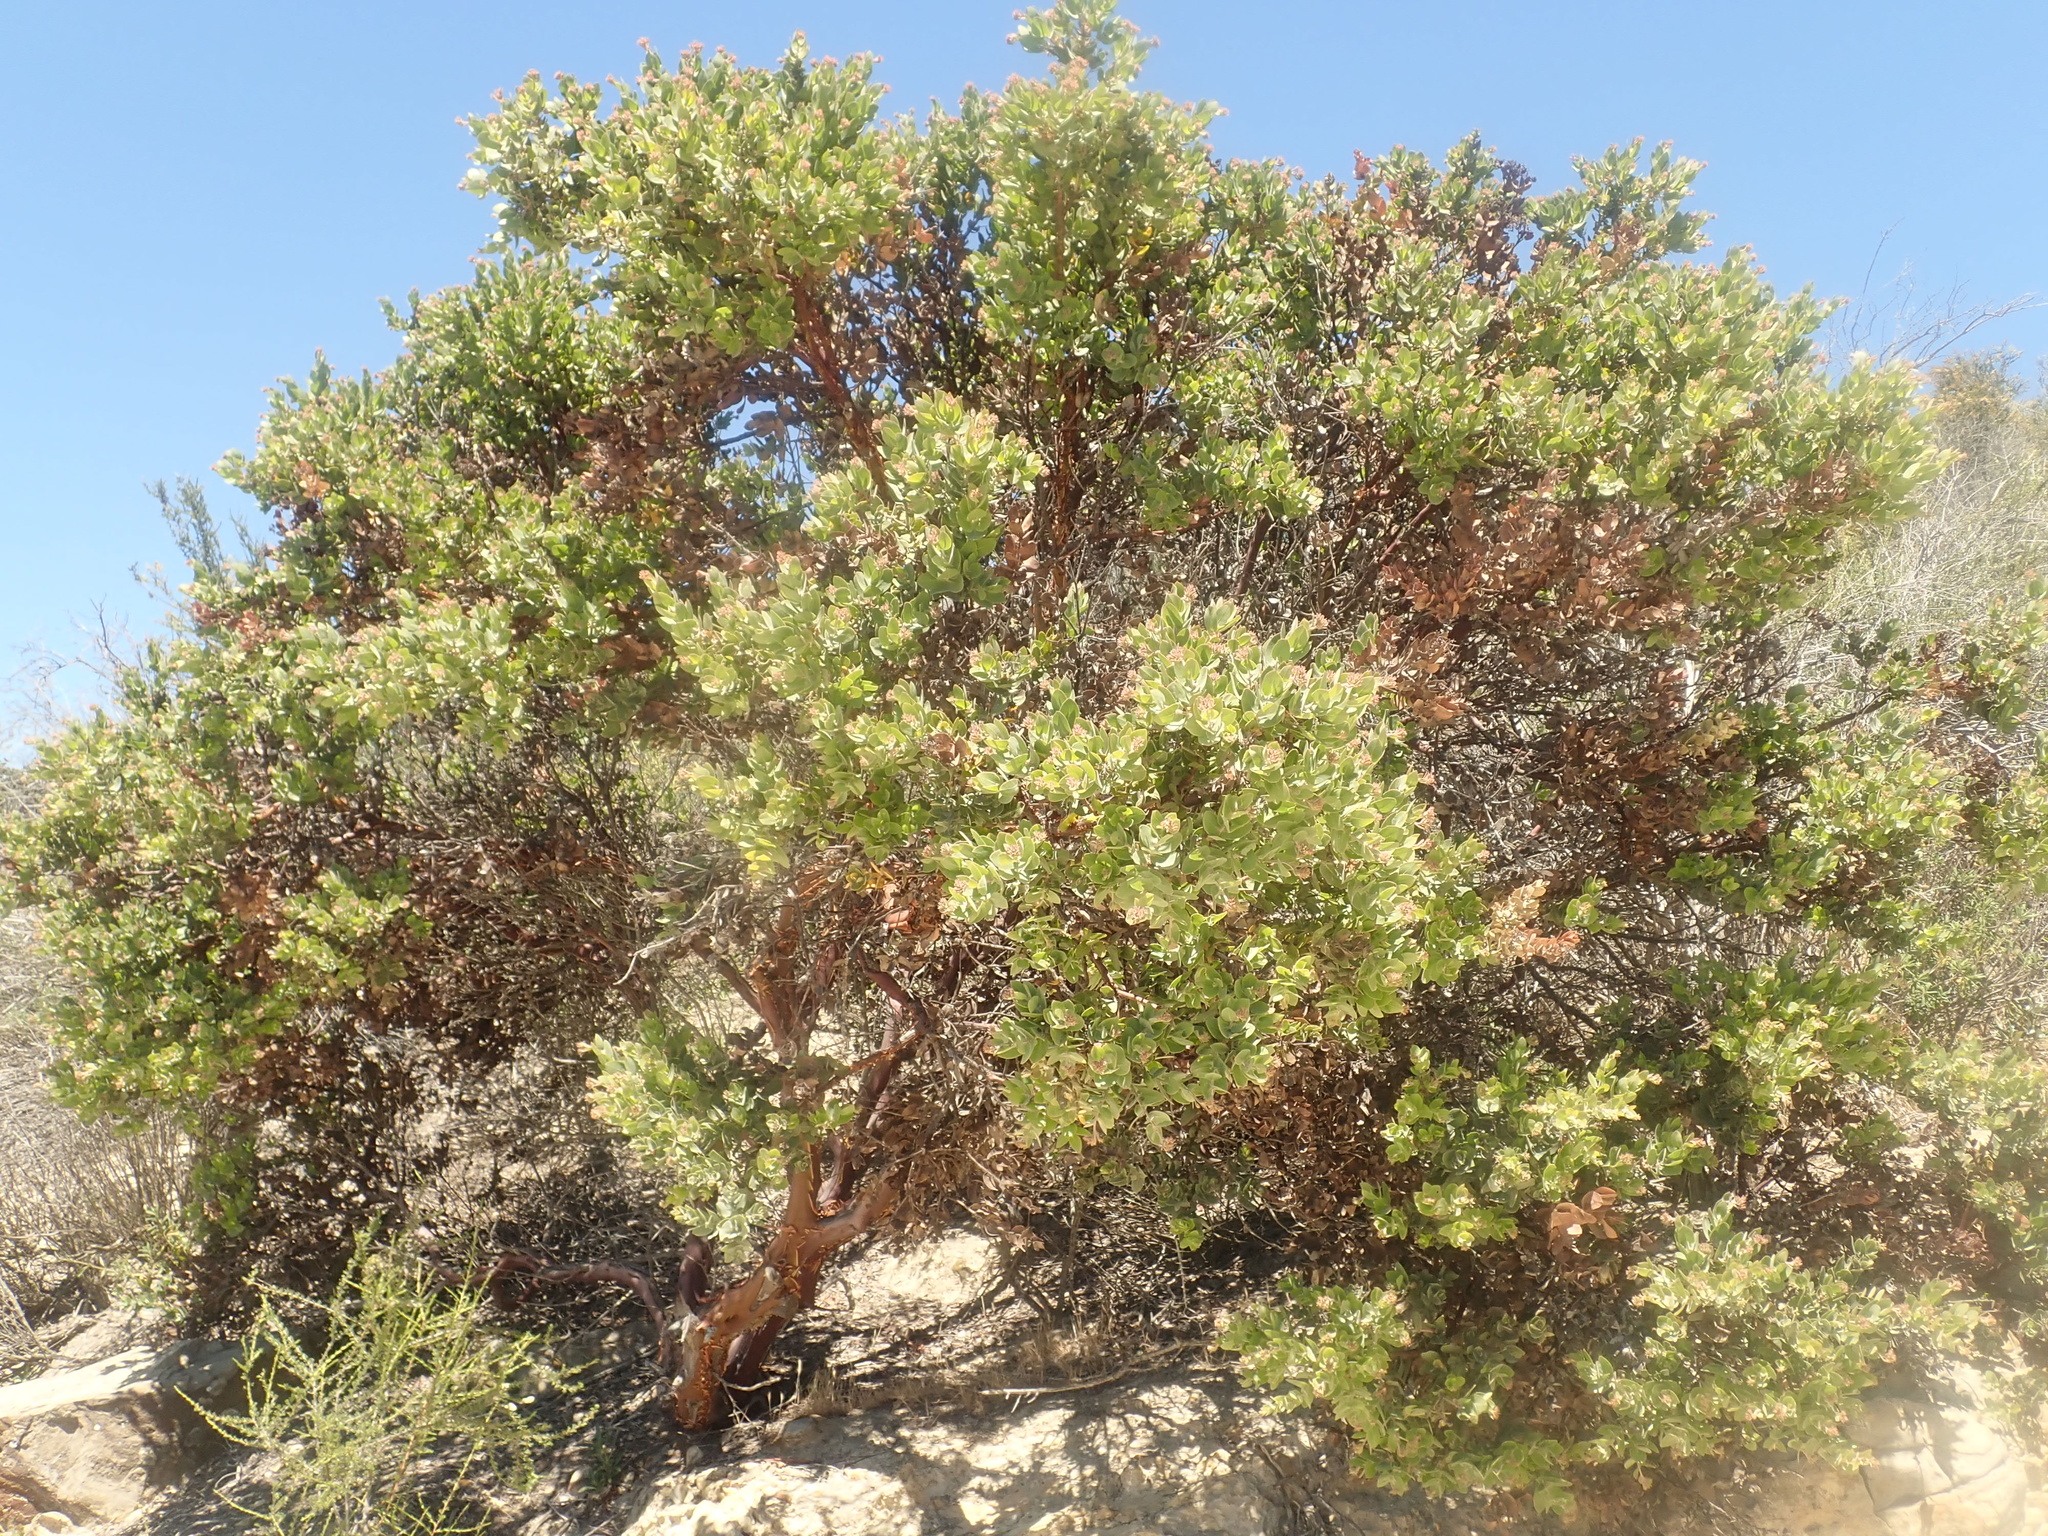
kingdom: Plantae
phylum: Tracheophyta
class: Magnoliopsida
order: Ericales
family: Ericaceae
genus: Arctostaphylos
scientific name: Arctostaphylos auriculata
